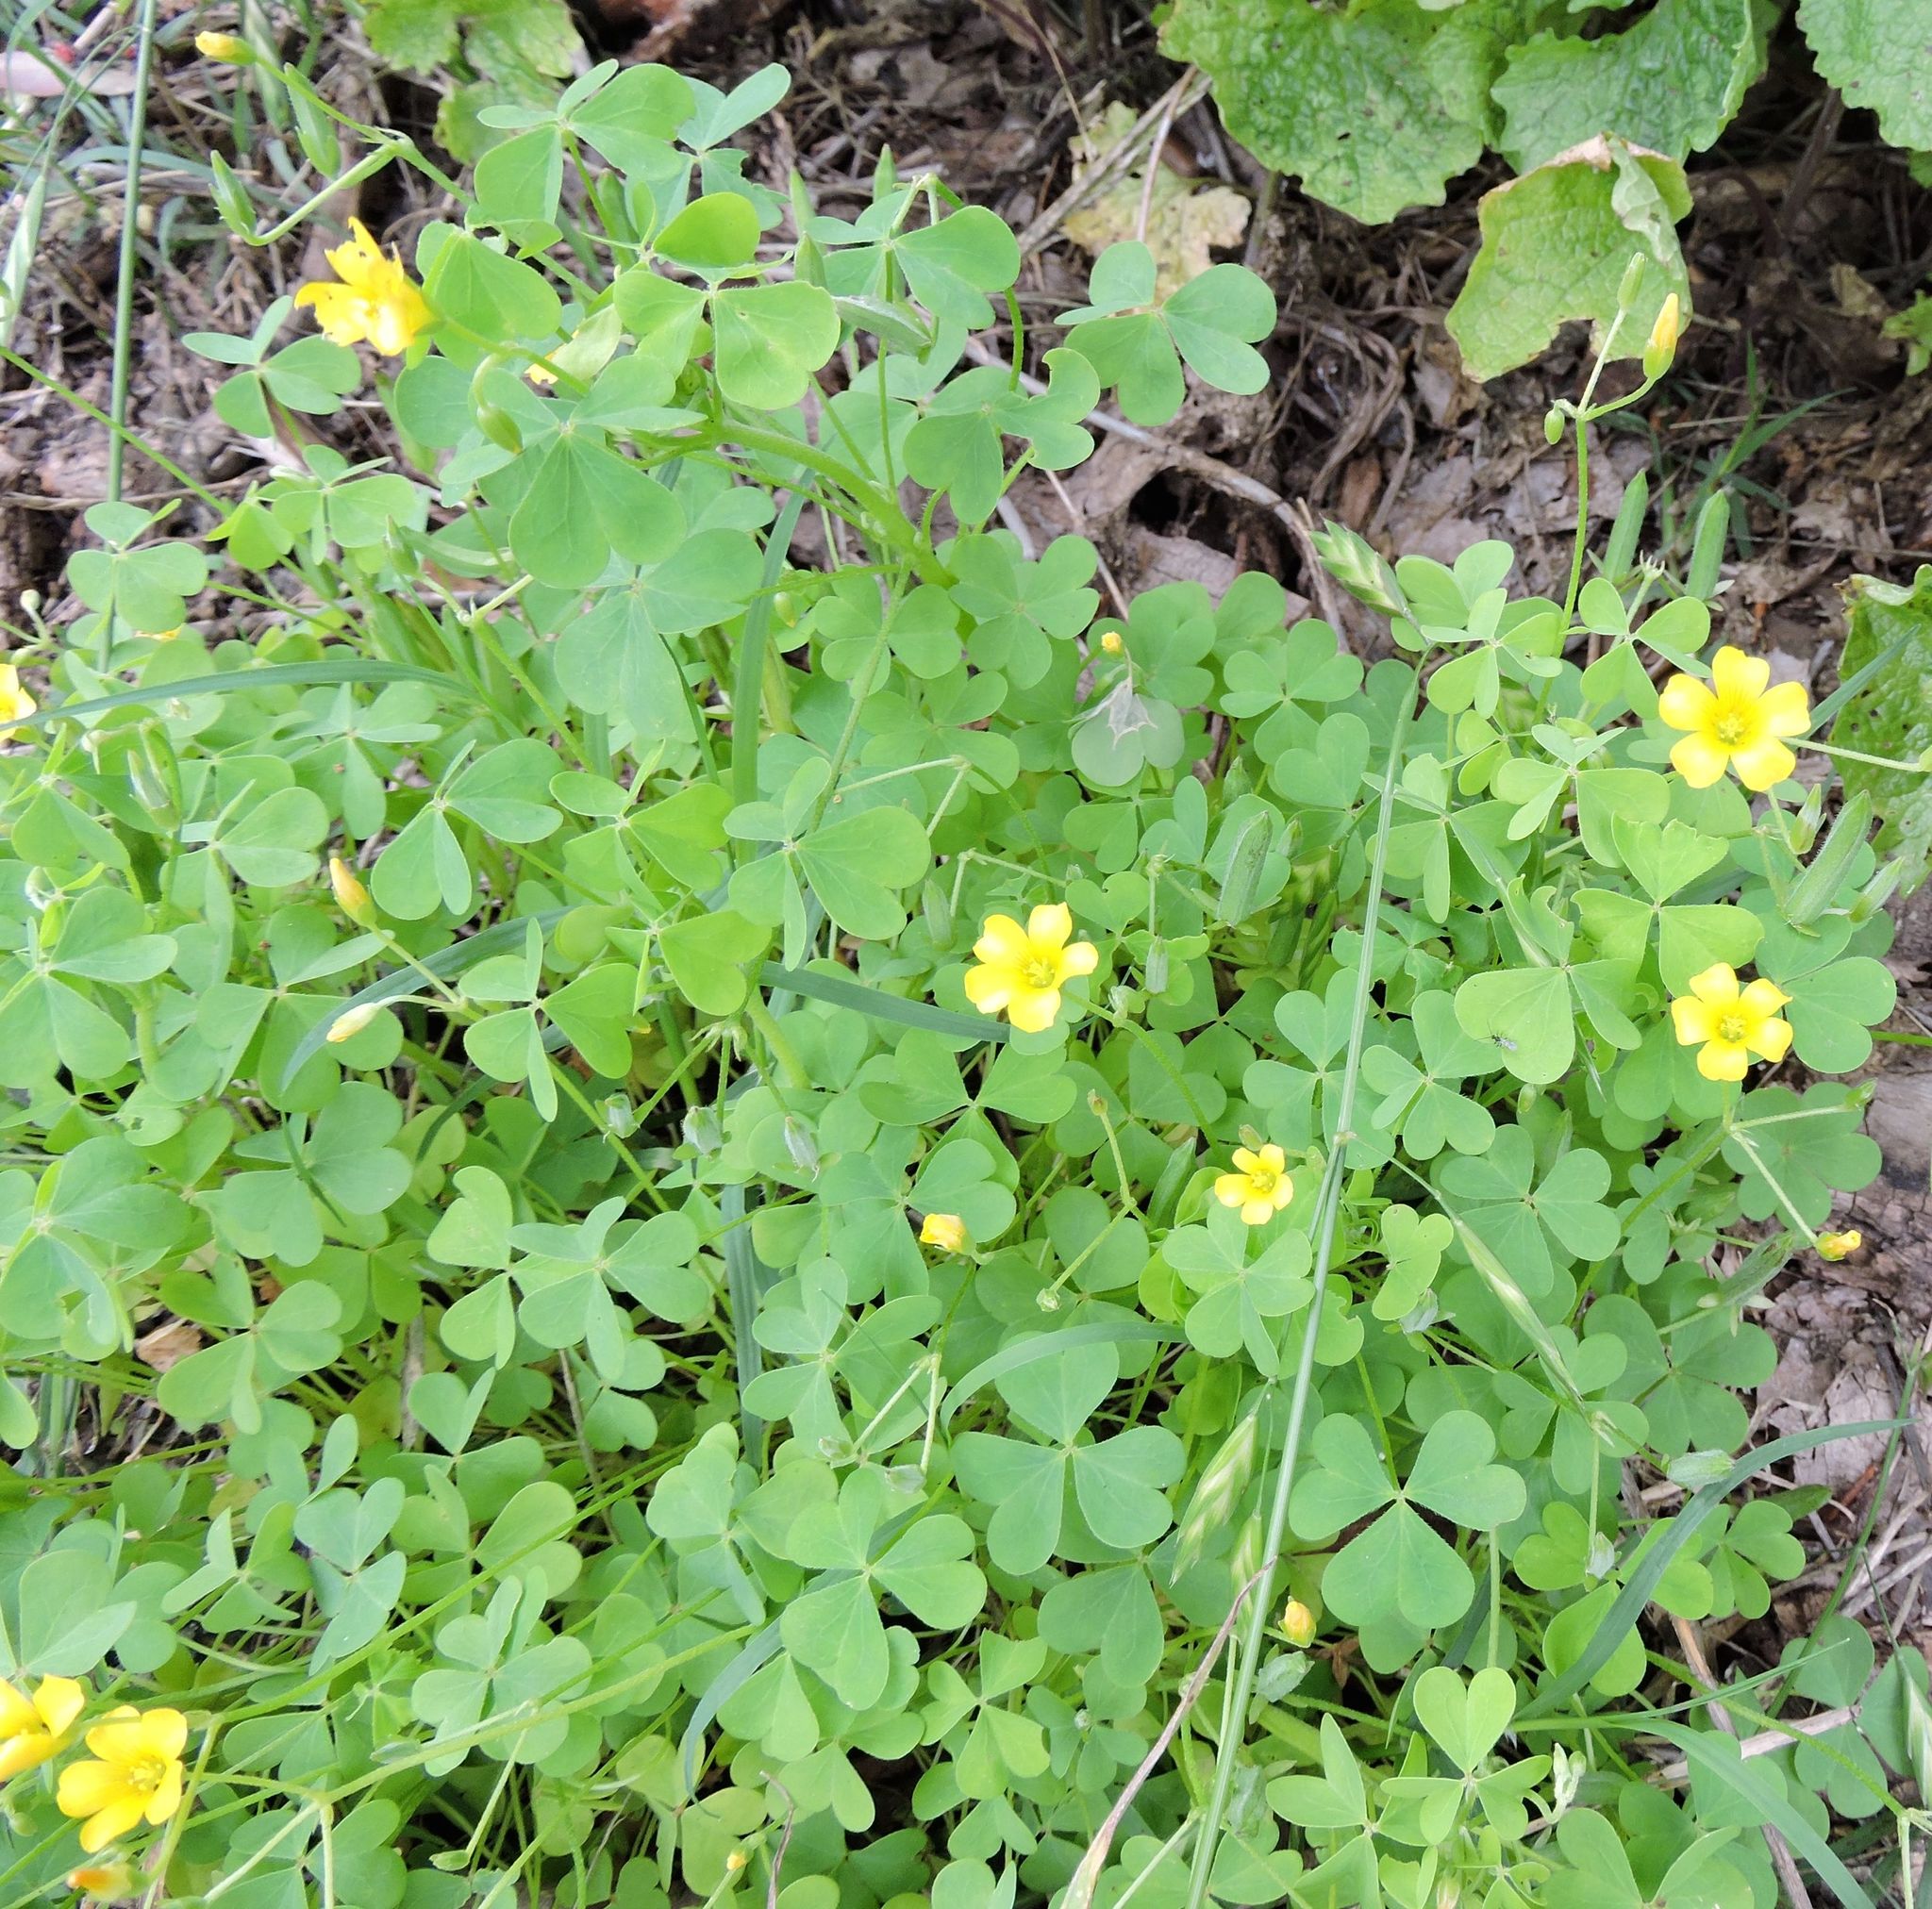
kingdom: Plantae
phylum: Tracheophyta
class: Magnoliopsida
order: Oxalidales
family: Oxalidaceae
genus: Oxalis
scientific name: Oxalis stricta
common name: Upright yellow-sorrel
